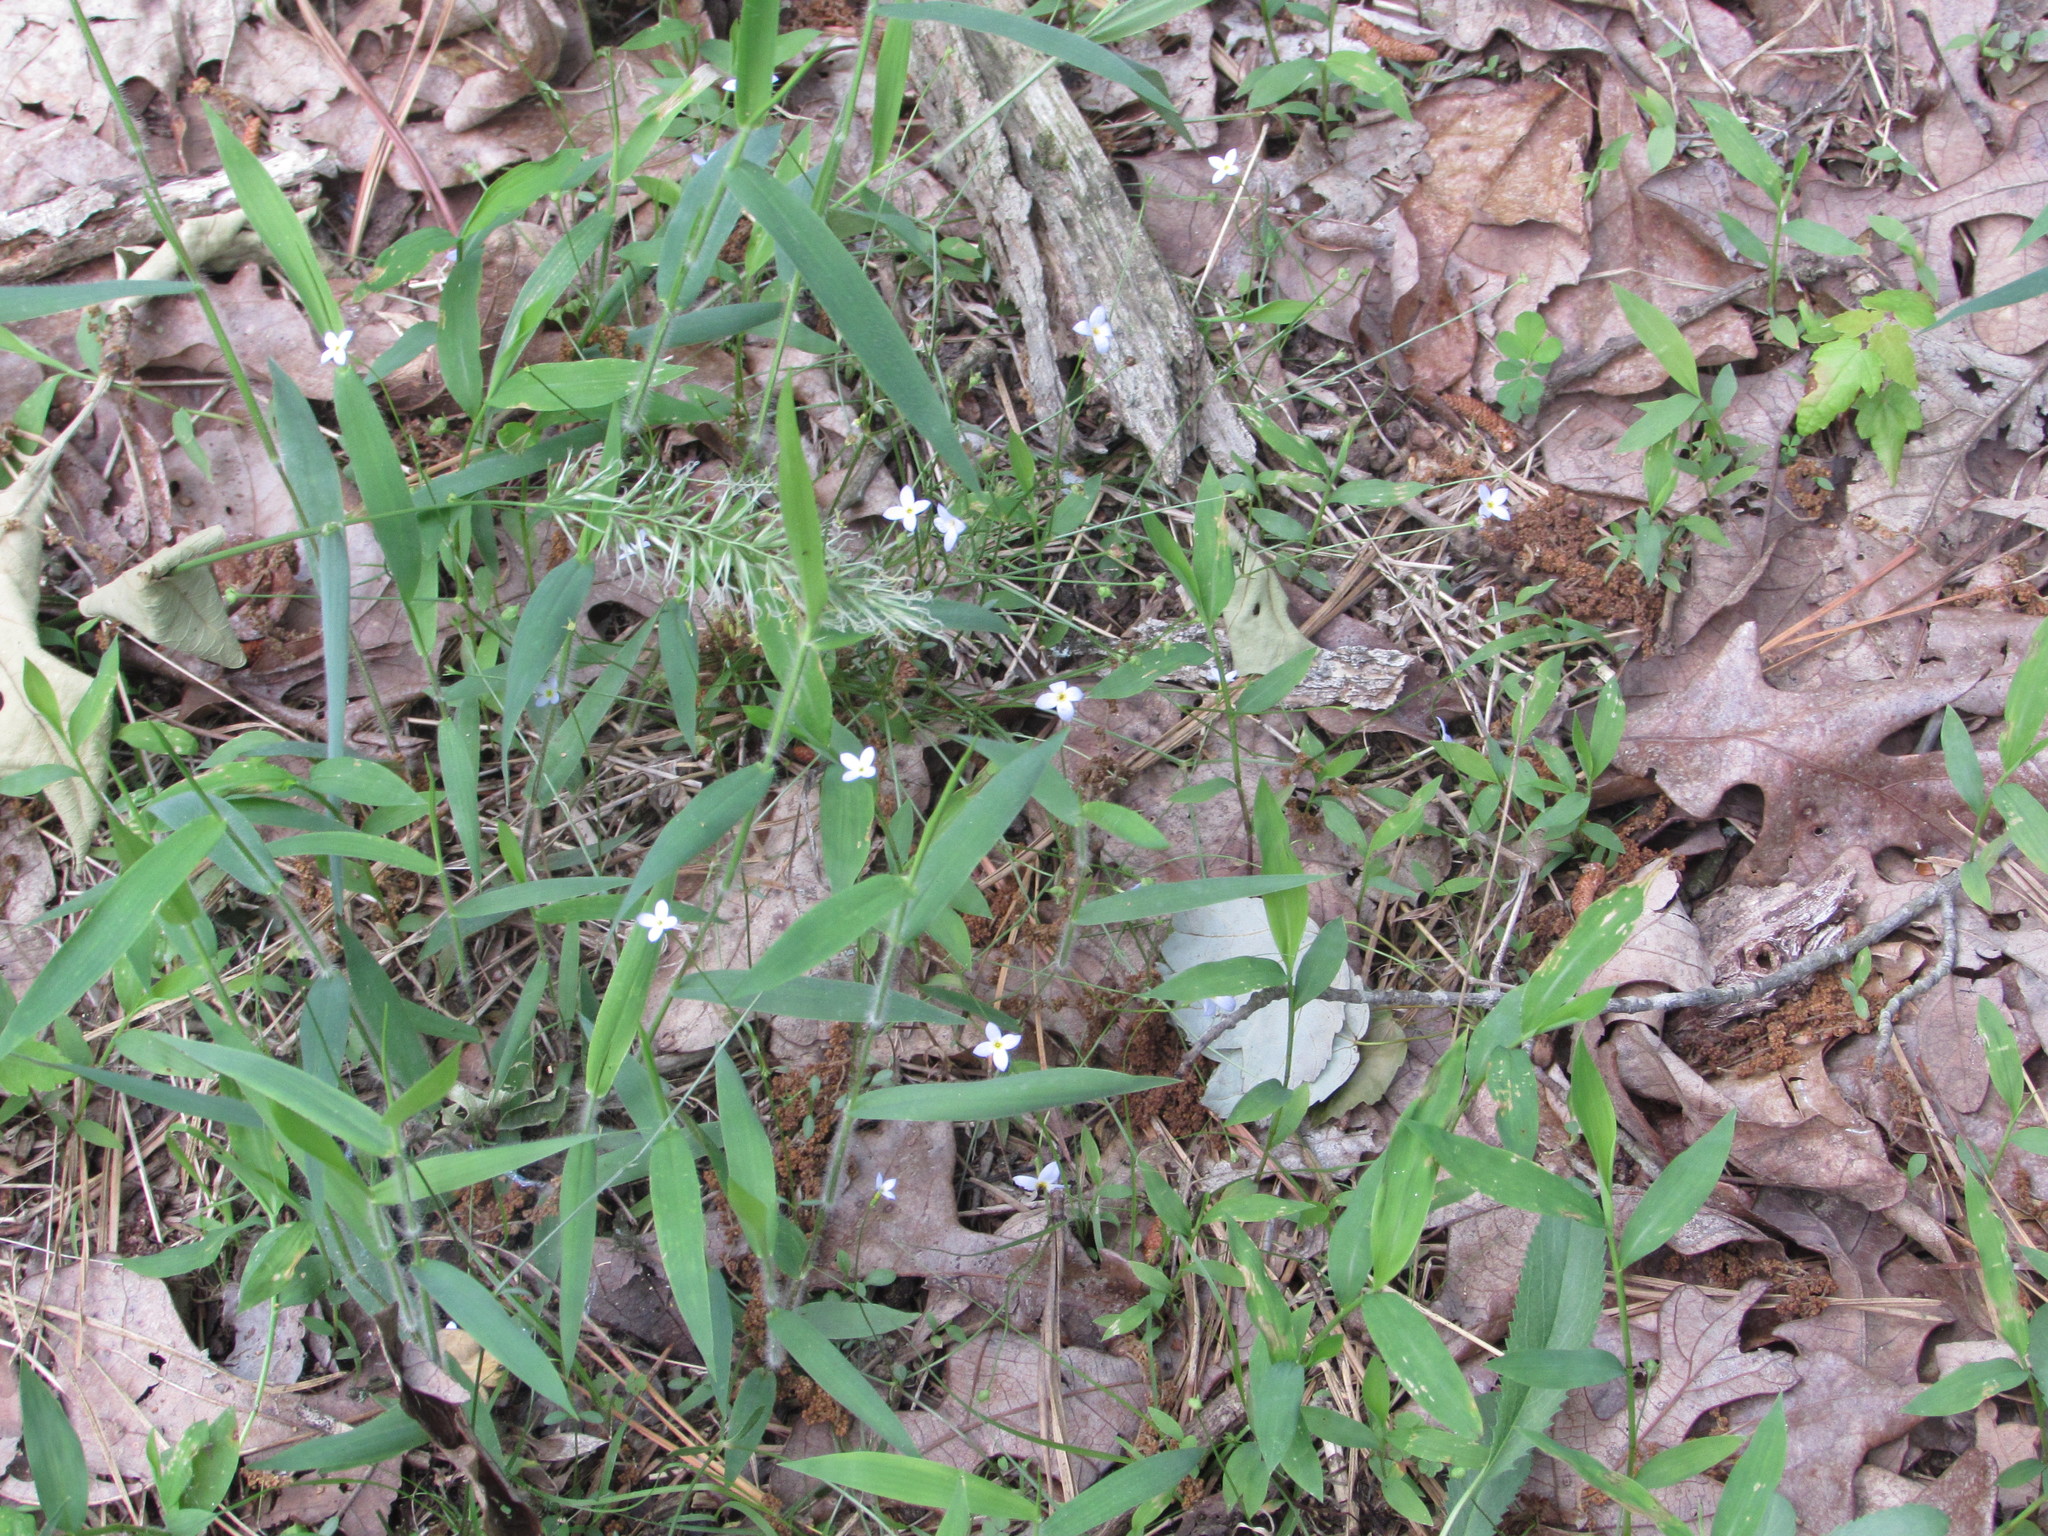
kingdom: Plantae
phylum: Tracheophyta
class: Magnoliopsida
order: Gentianales
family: Rubiaceae
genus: Houstonia
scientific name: Houstonia caerulea
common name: Bluets
